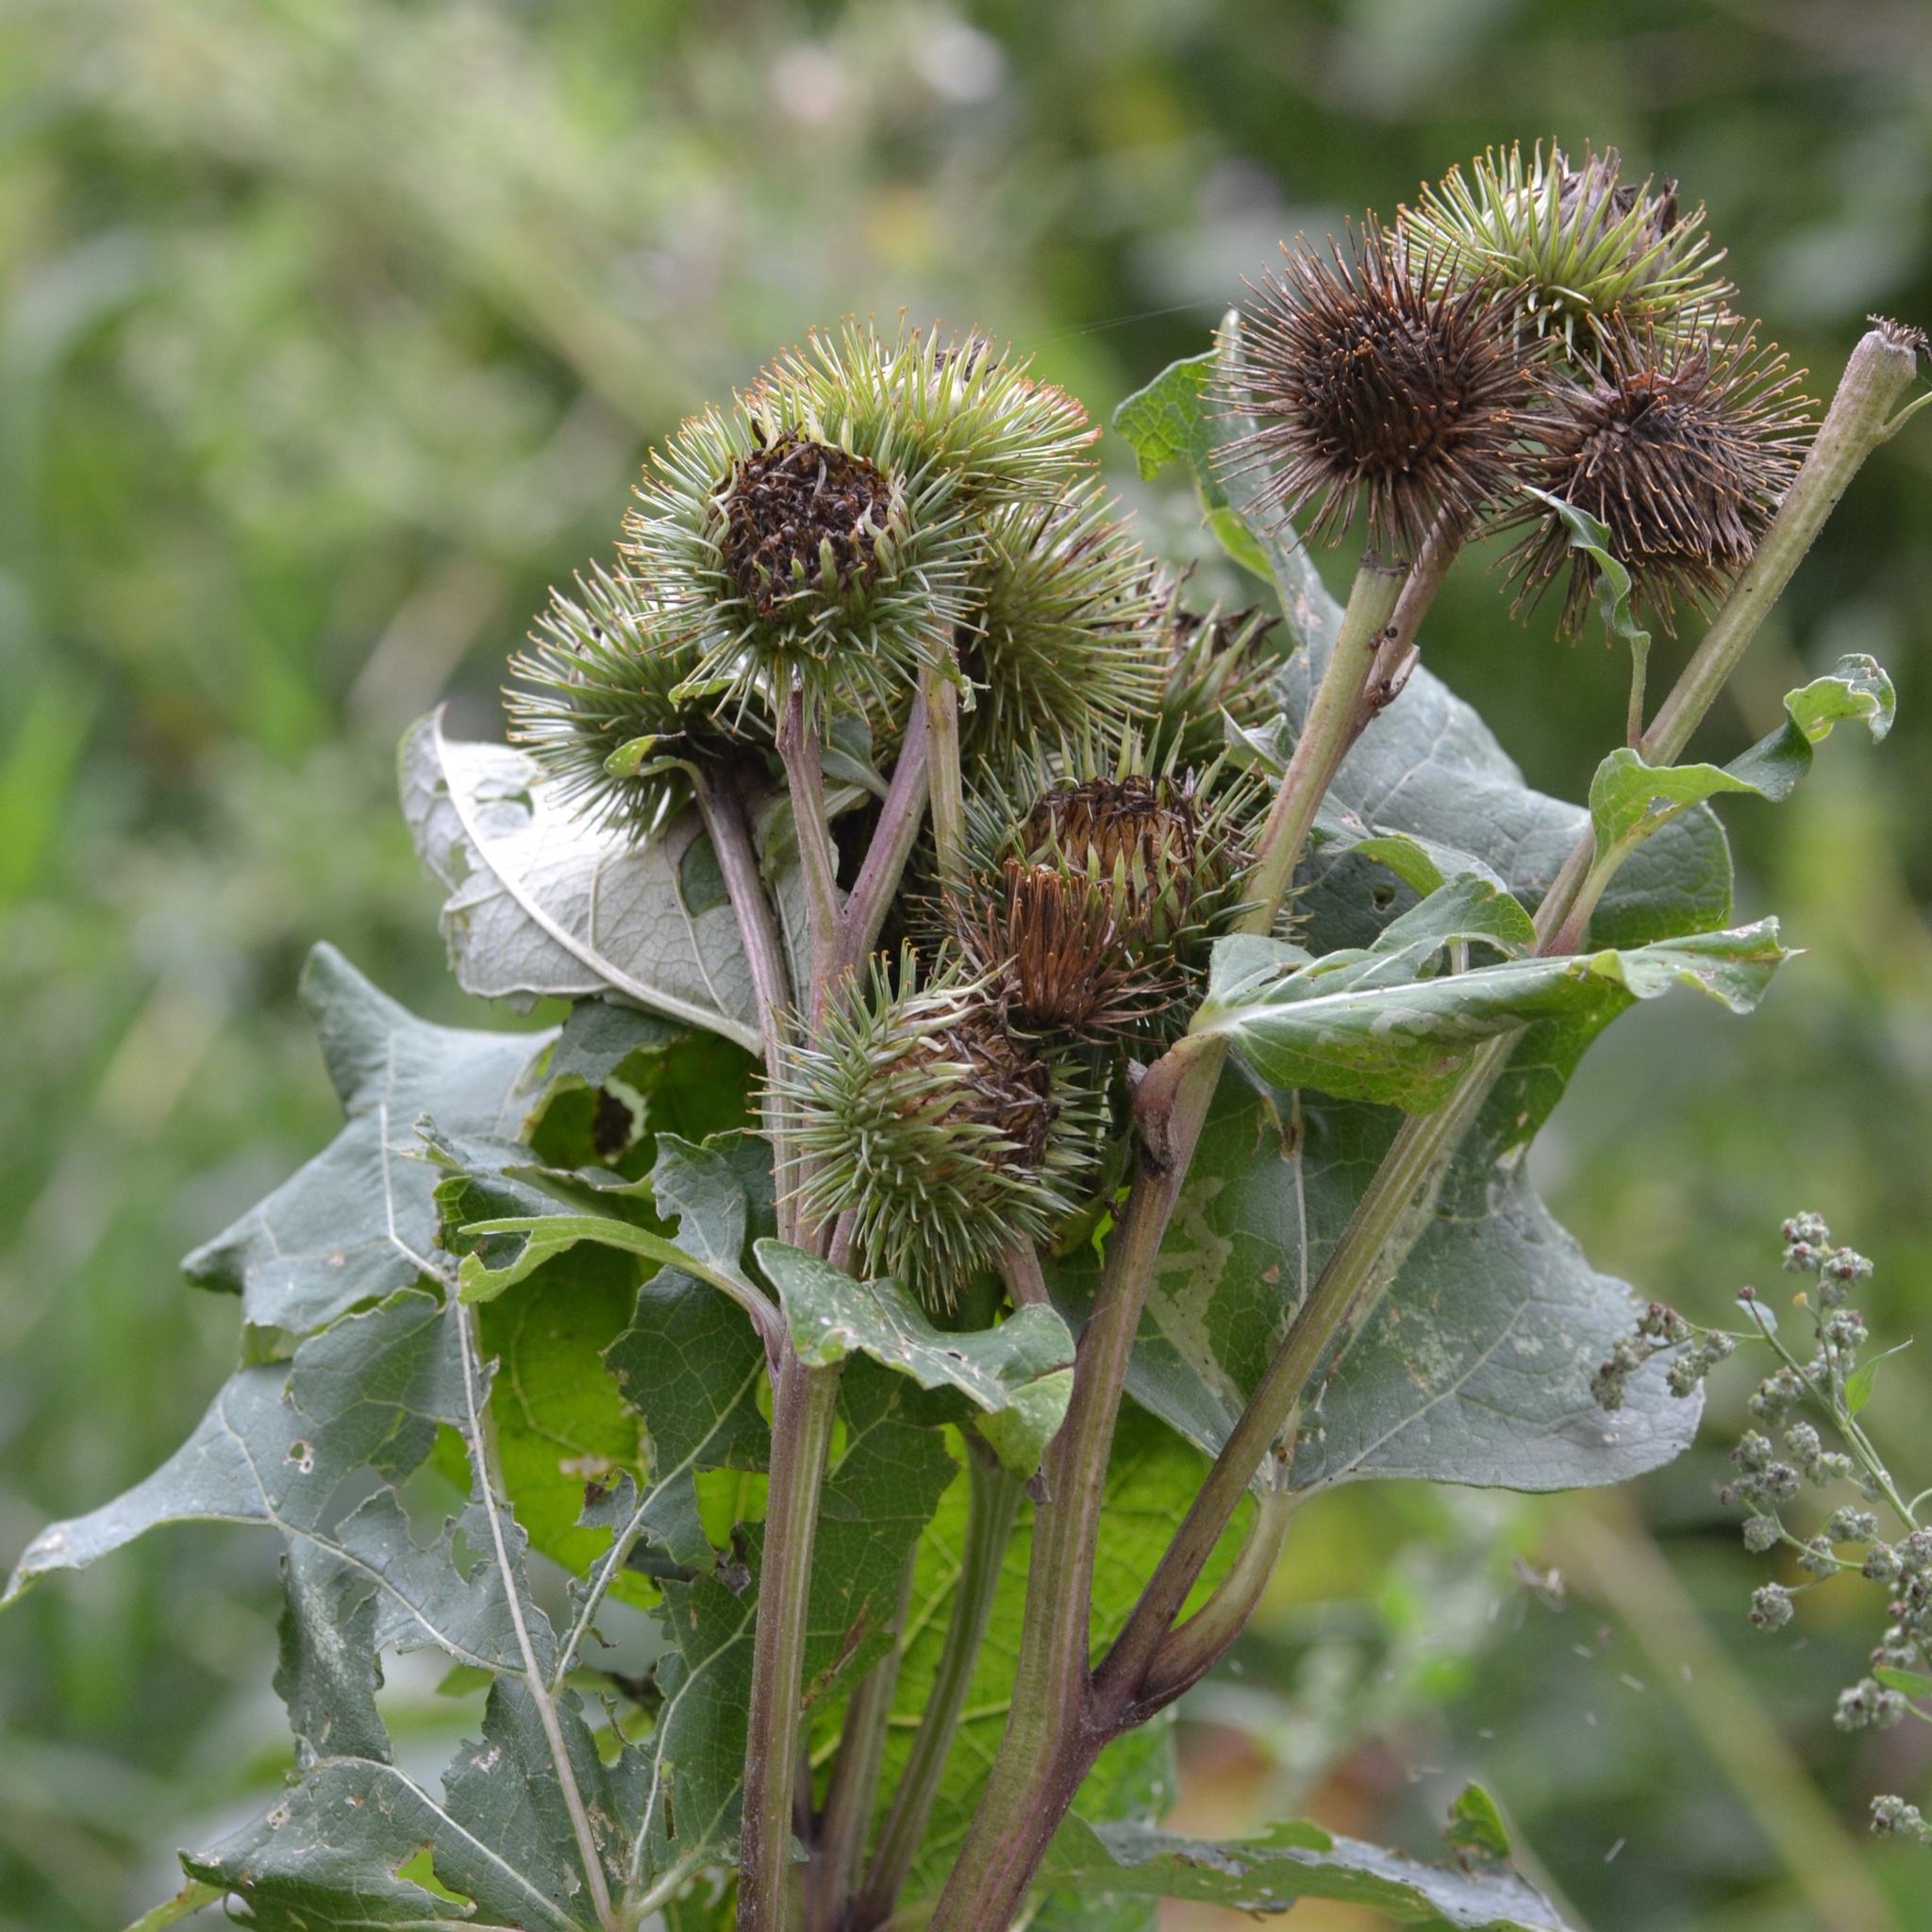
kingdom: Plantae
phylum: Tracheophyta
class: Magnoliopsida
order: Asterales
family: Asteraceae
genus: Arctium
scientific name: Arctium lappa
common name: Greater burdock
